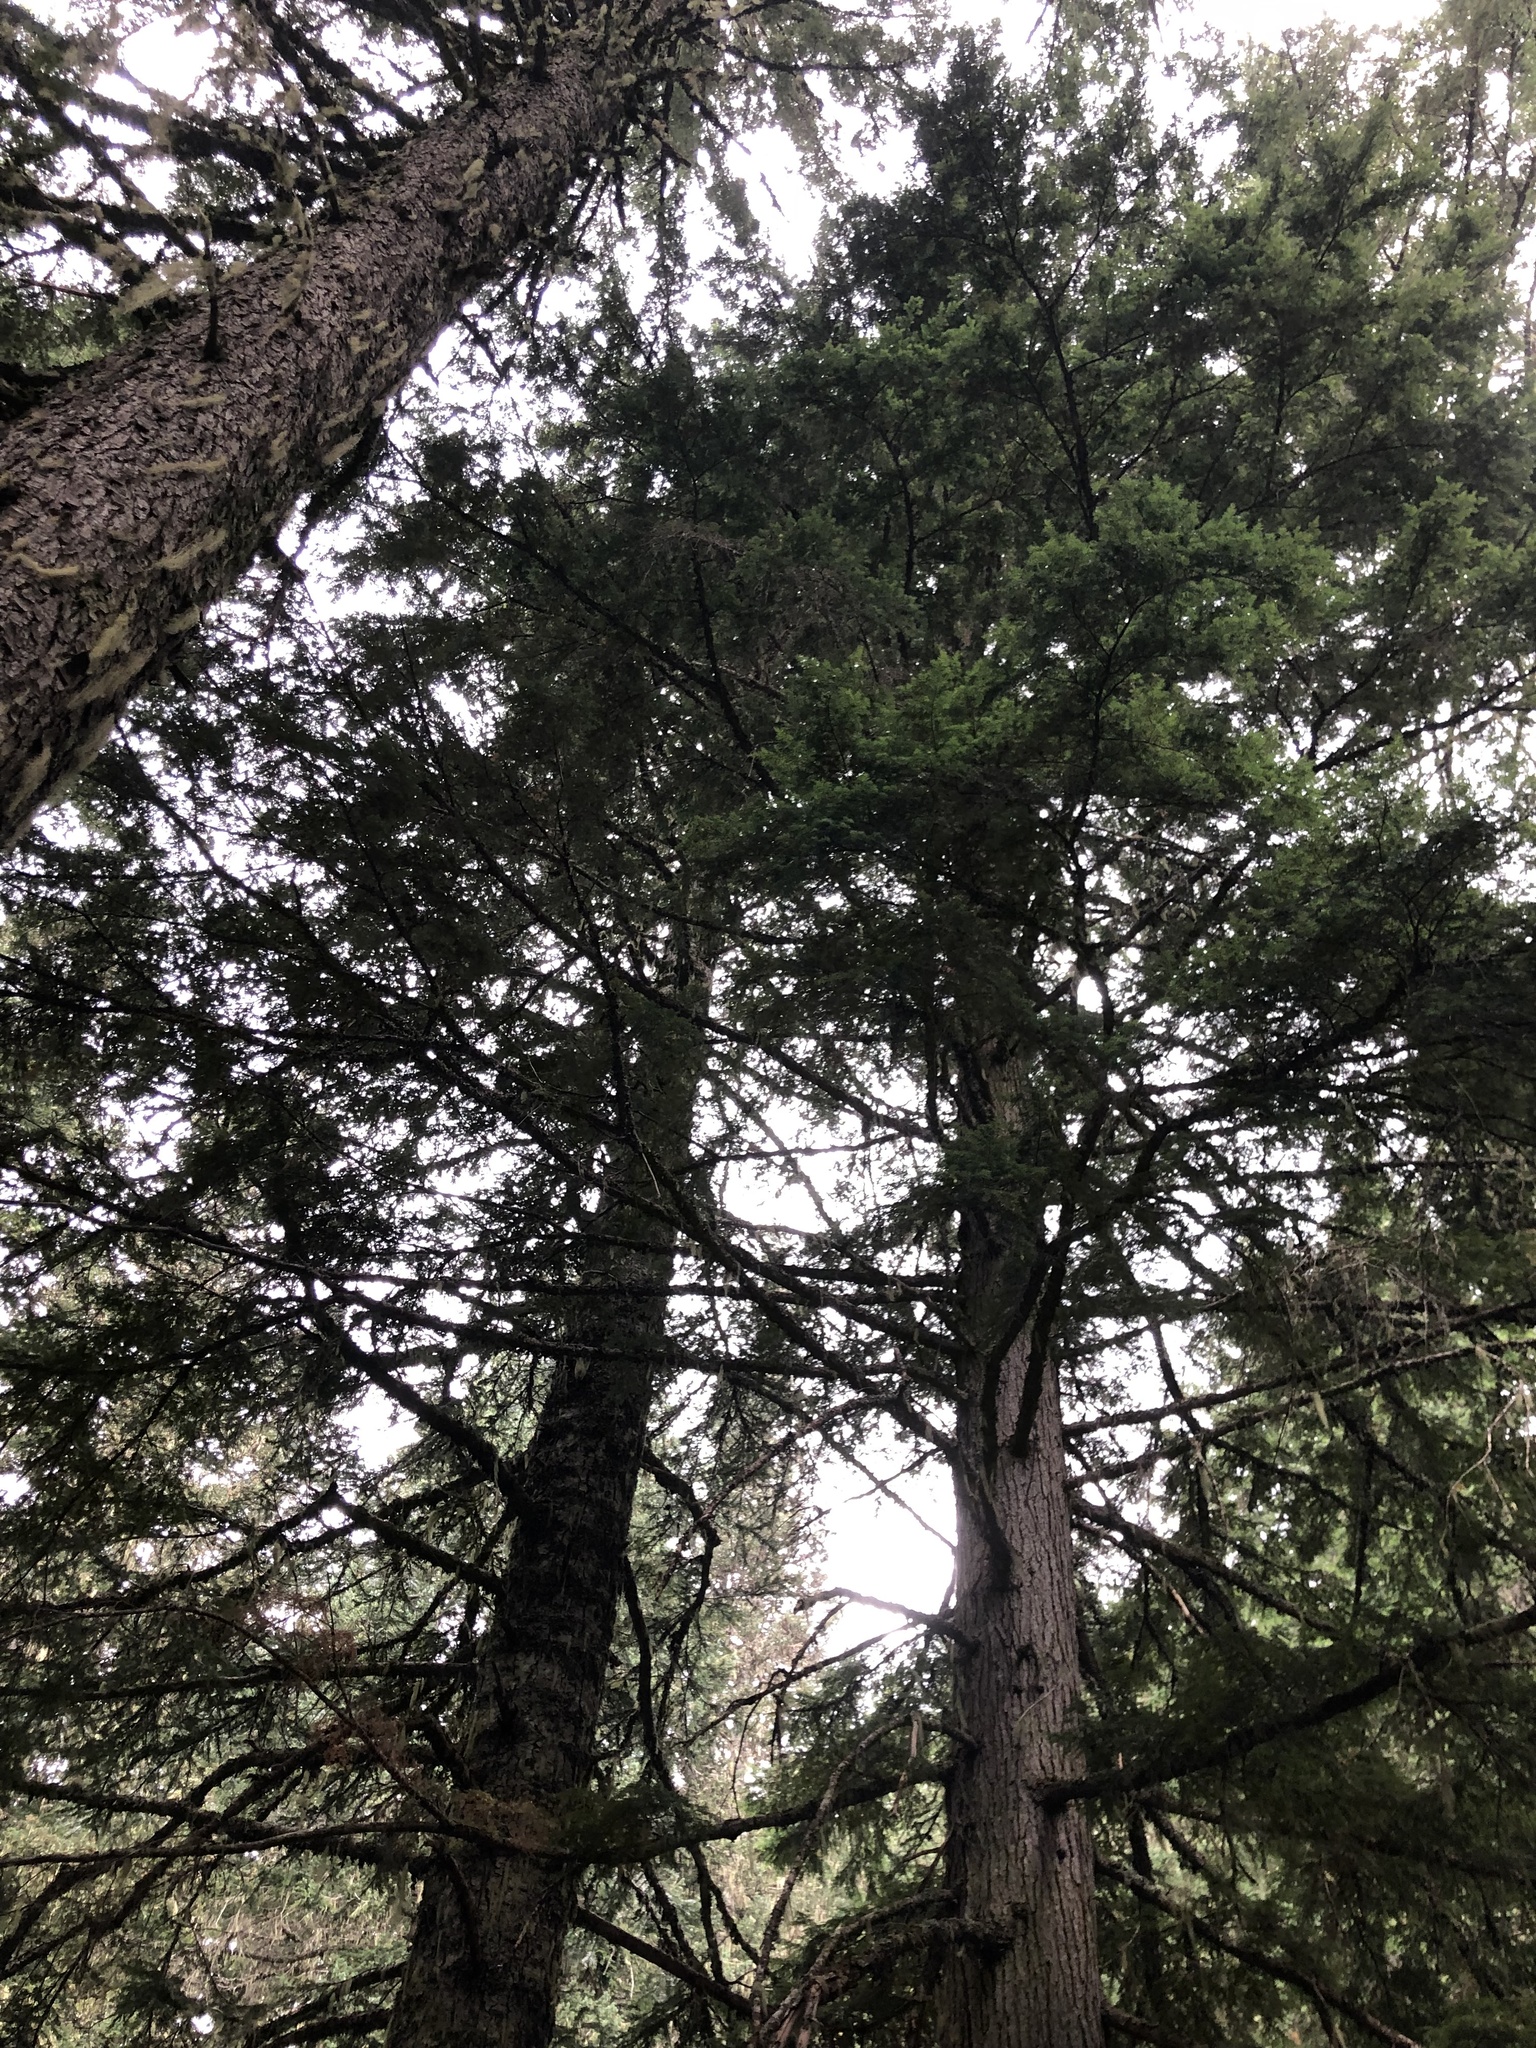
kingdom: Plantae
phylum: Tracheophyta
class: Pinopsida
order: Pinales
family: Pinaceae
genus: Abies
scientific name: Abies amabilis
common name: Pacific silver fir
